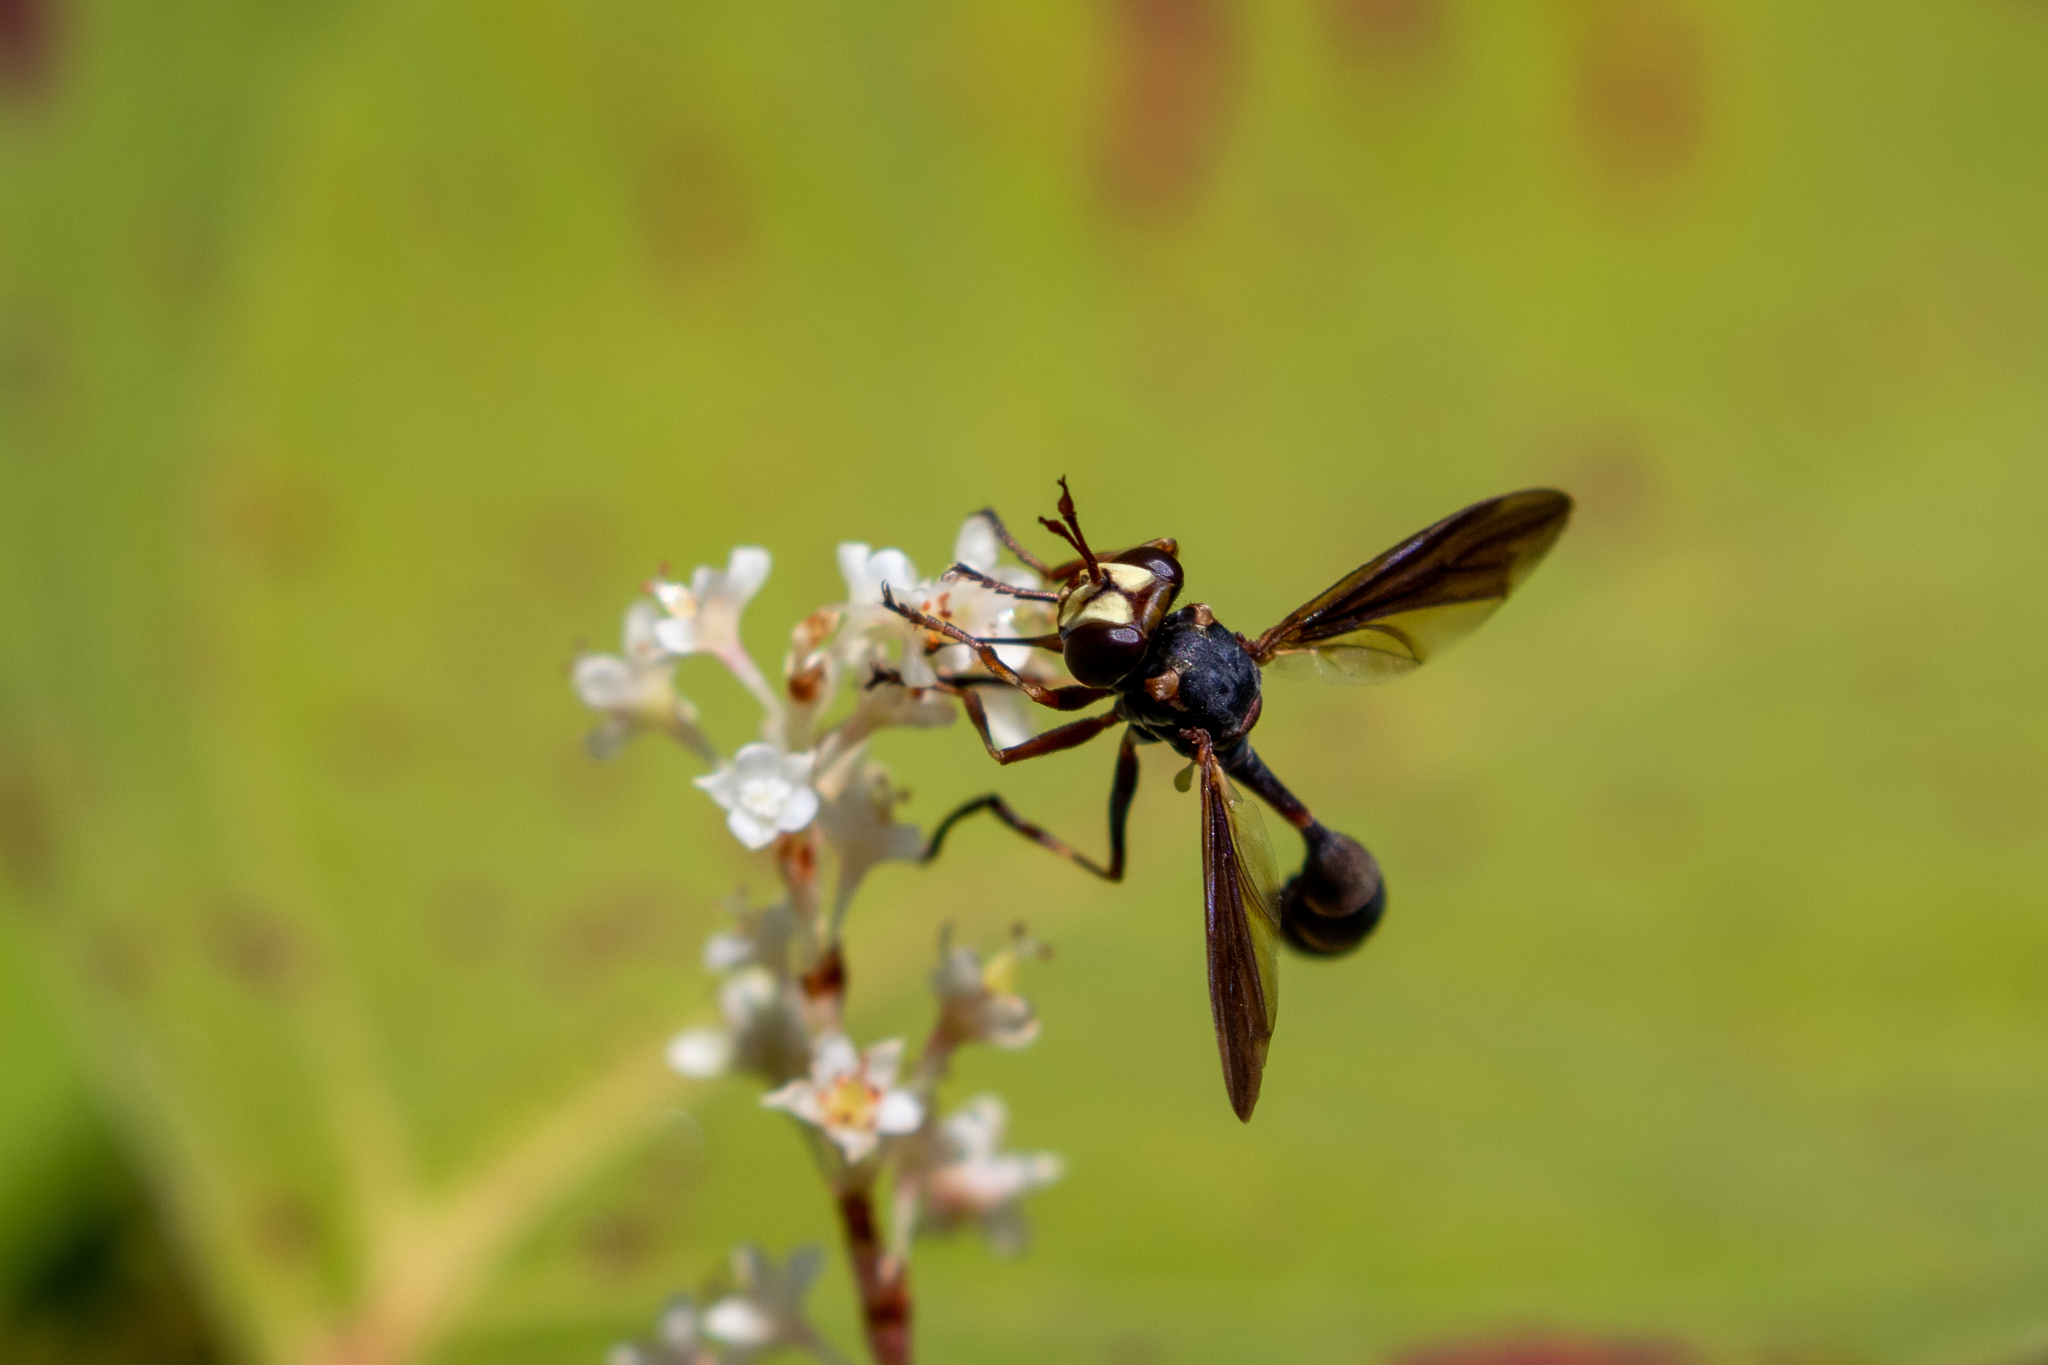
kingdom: Animalia
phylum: Arthropoda
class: Insecta
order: Diptera
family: Conopidae
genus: Physocephala
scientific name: Physocephala sagittaria
